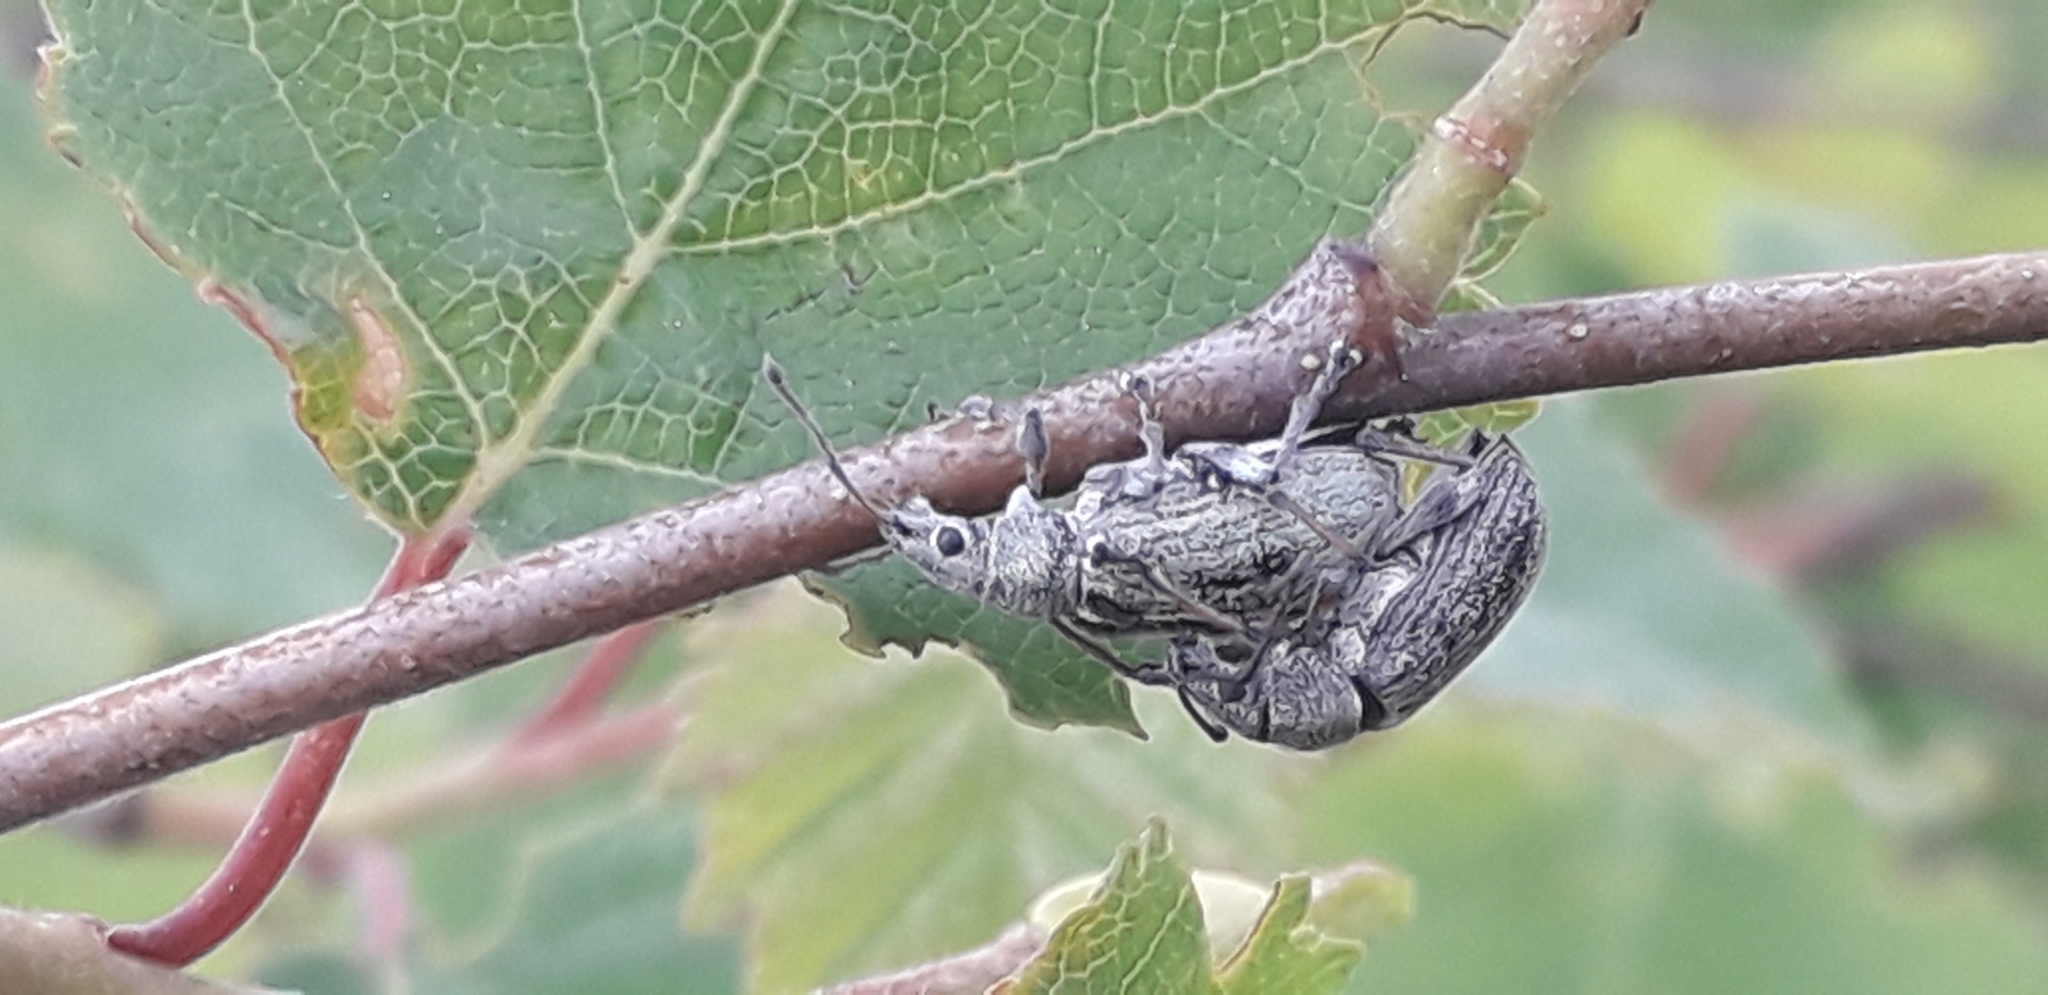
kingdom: Animalia
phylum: Arthropoda
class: Insecta
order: Coleoptera
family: Curculionidae
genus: Phyllobius
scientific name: Phyllobius pyri
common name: Common leaf weevil
